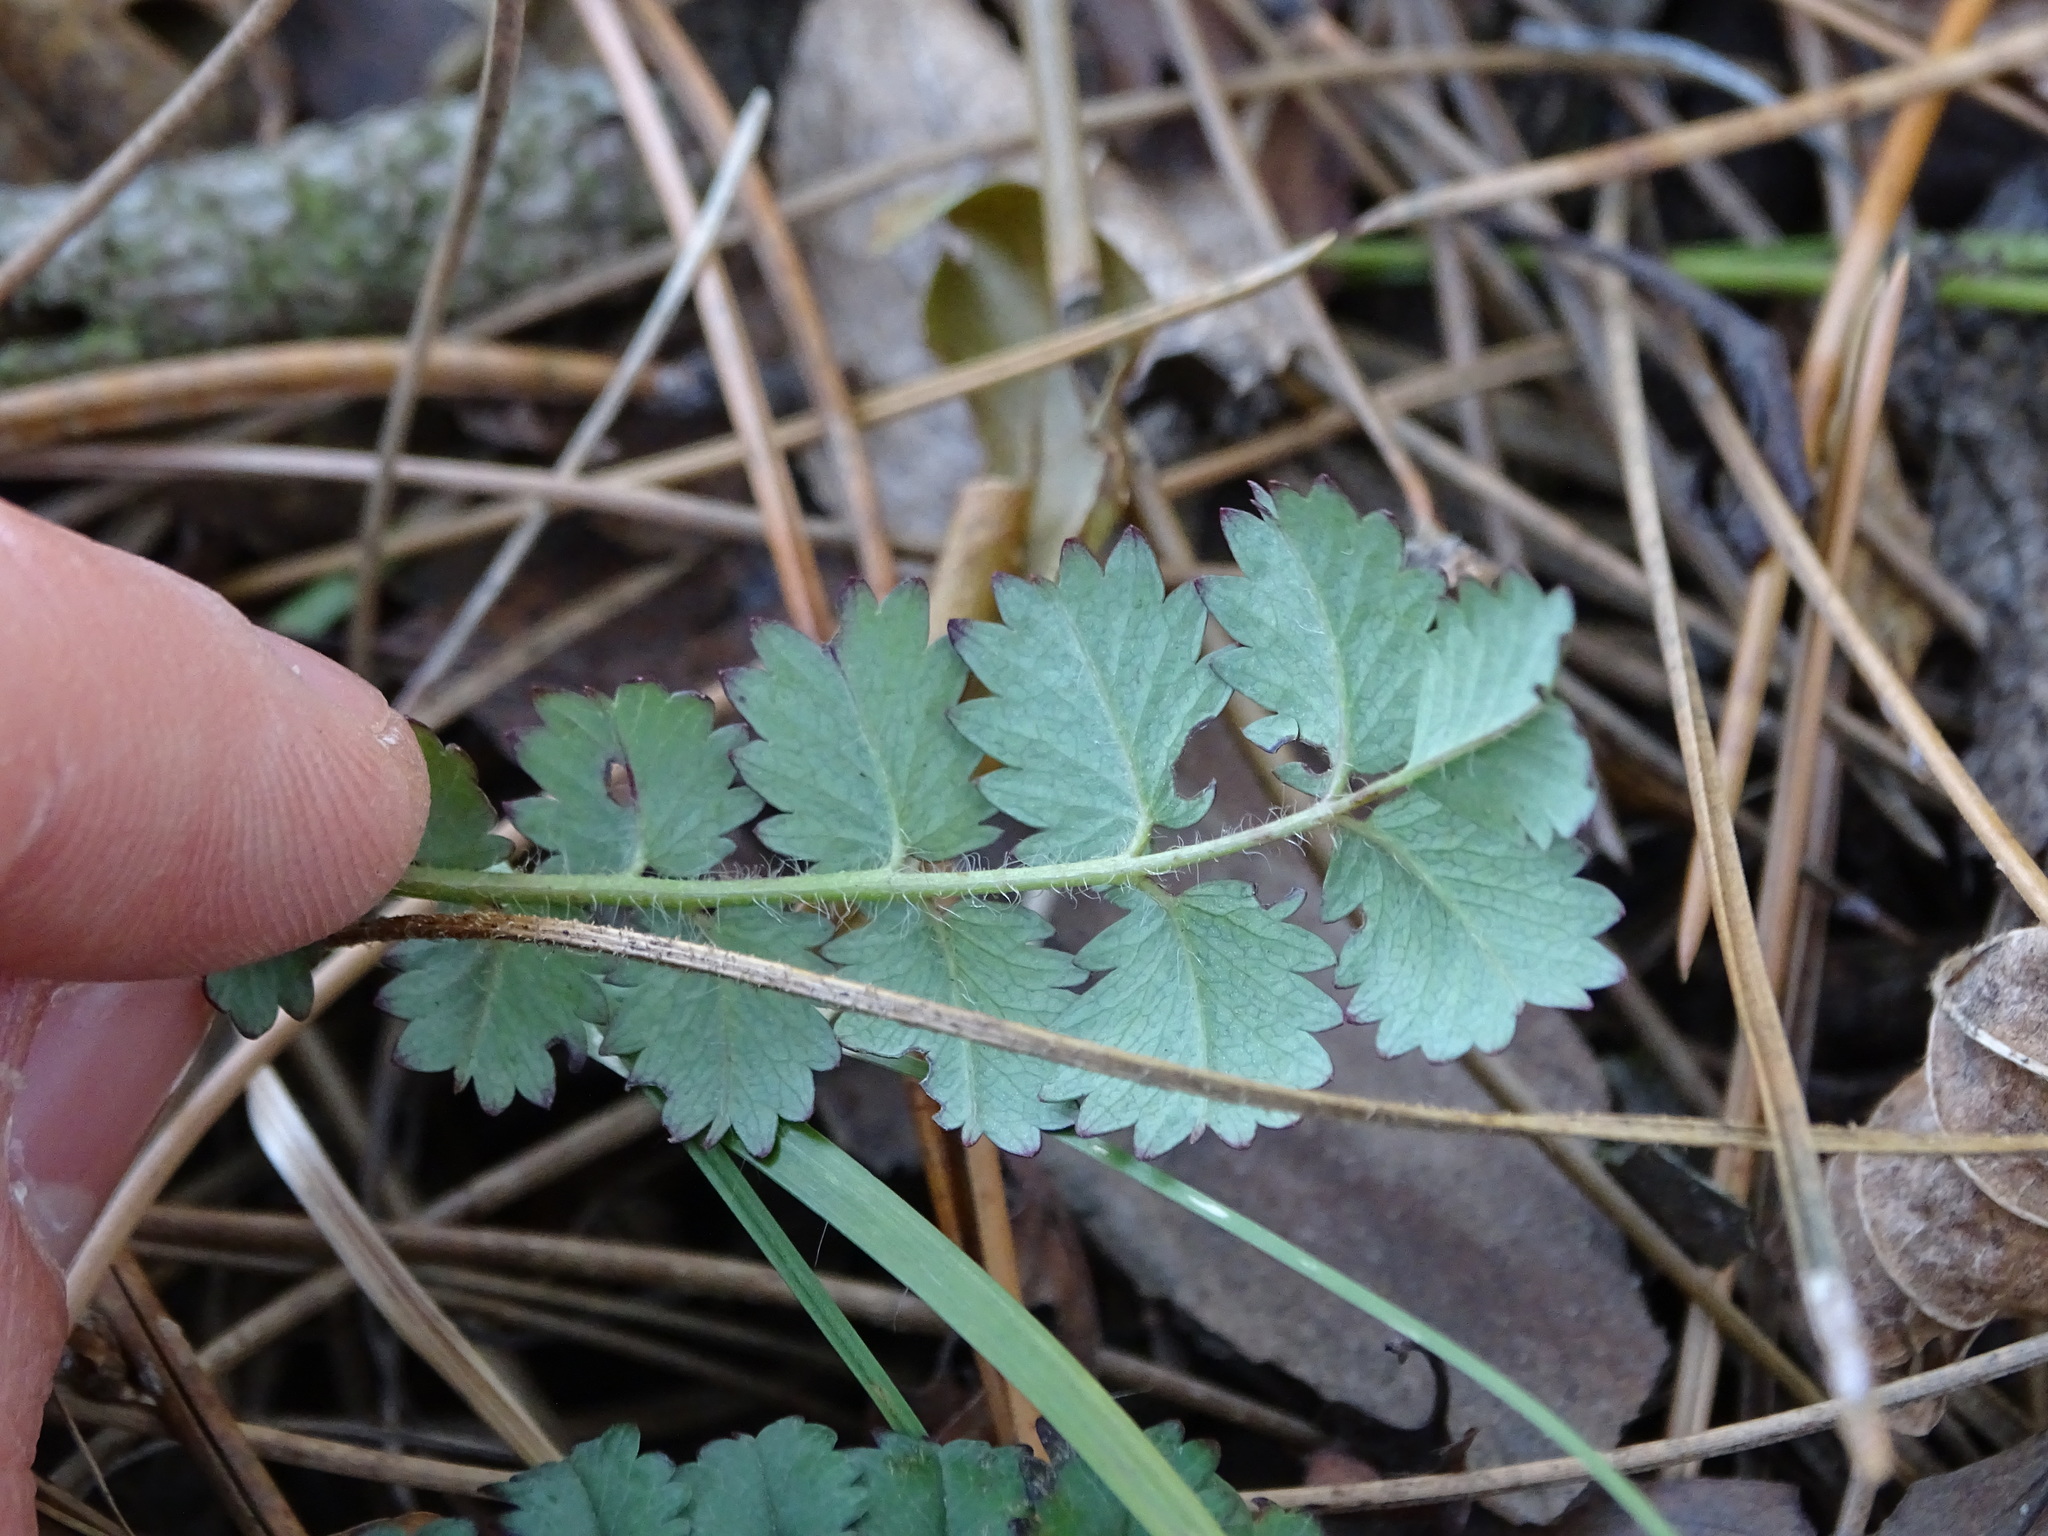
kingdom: Plantae
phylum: Tracheophyta
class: Magnoliopsida
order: Rosales
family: Rosaceae
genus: Poterium
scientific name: Poterium sanguisorba
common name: Salad burnet
